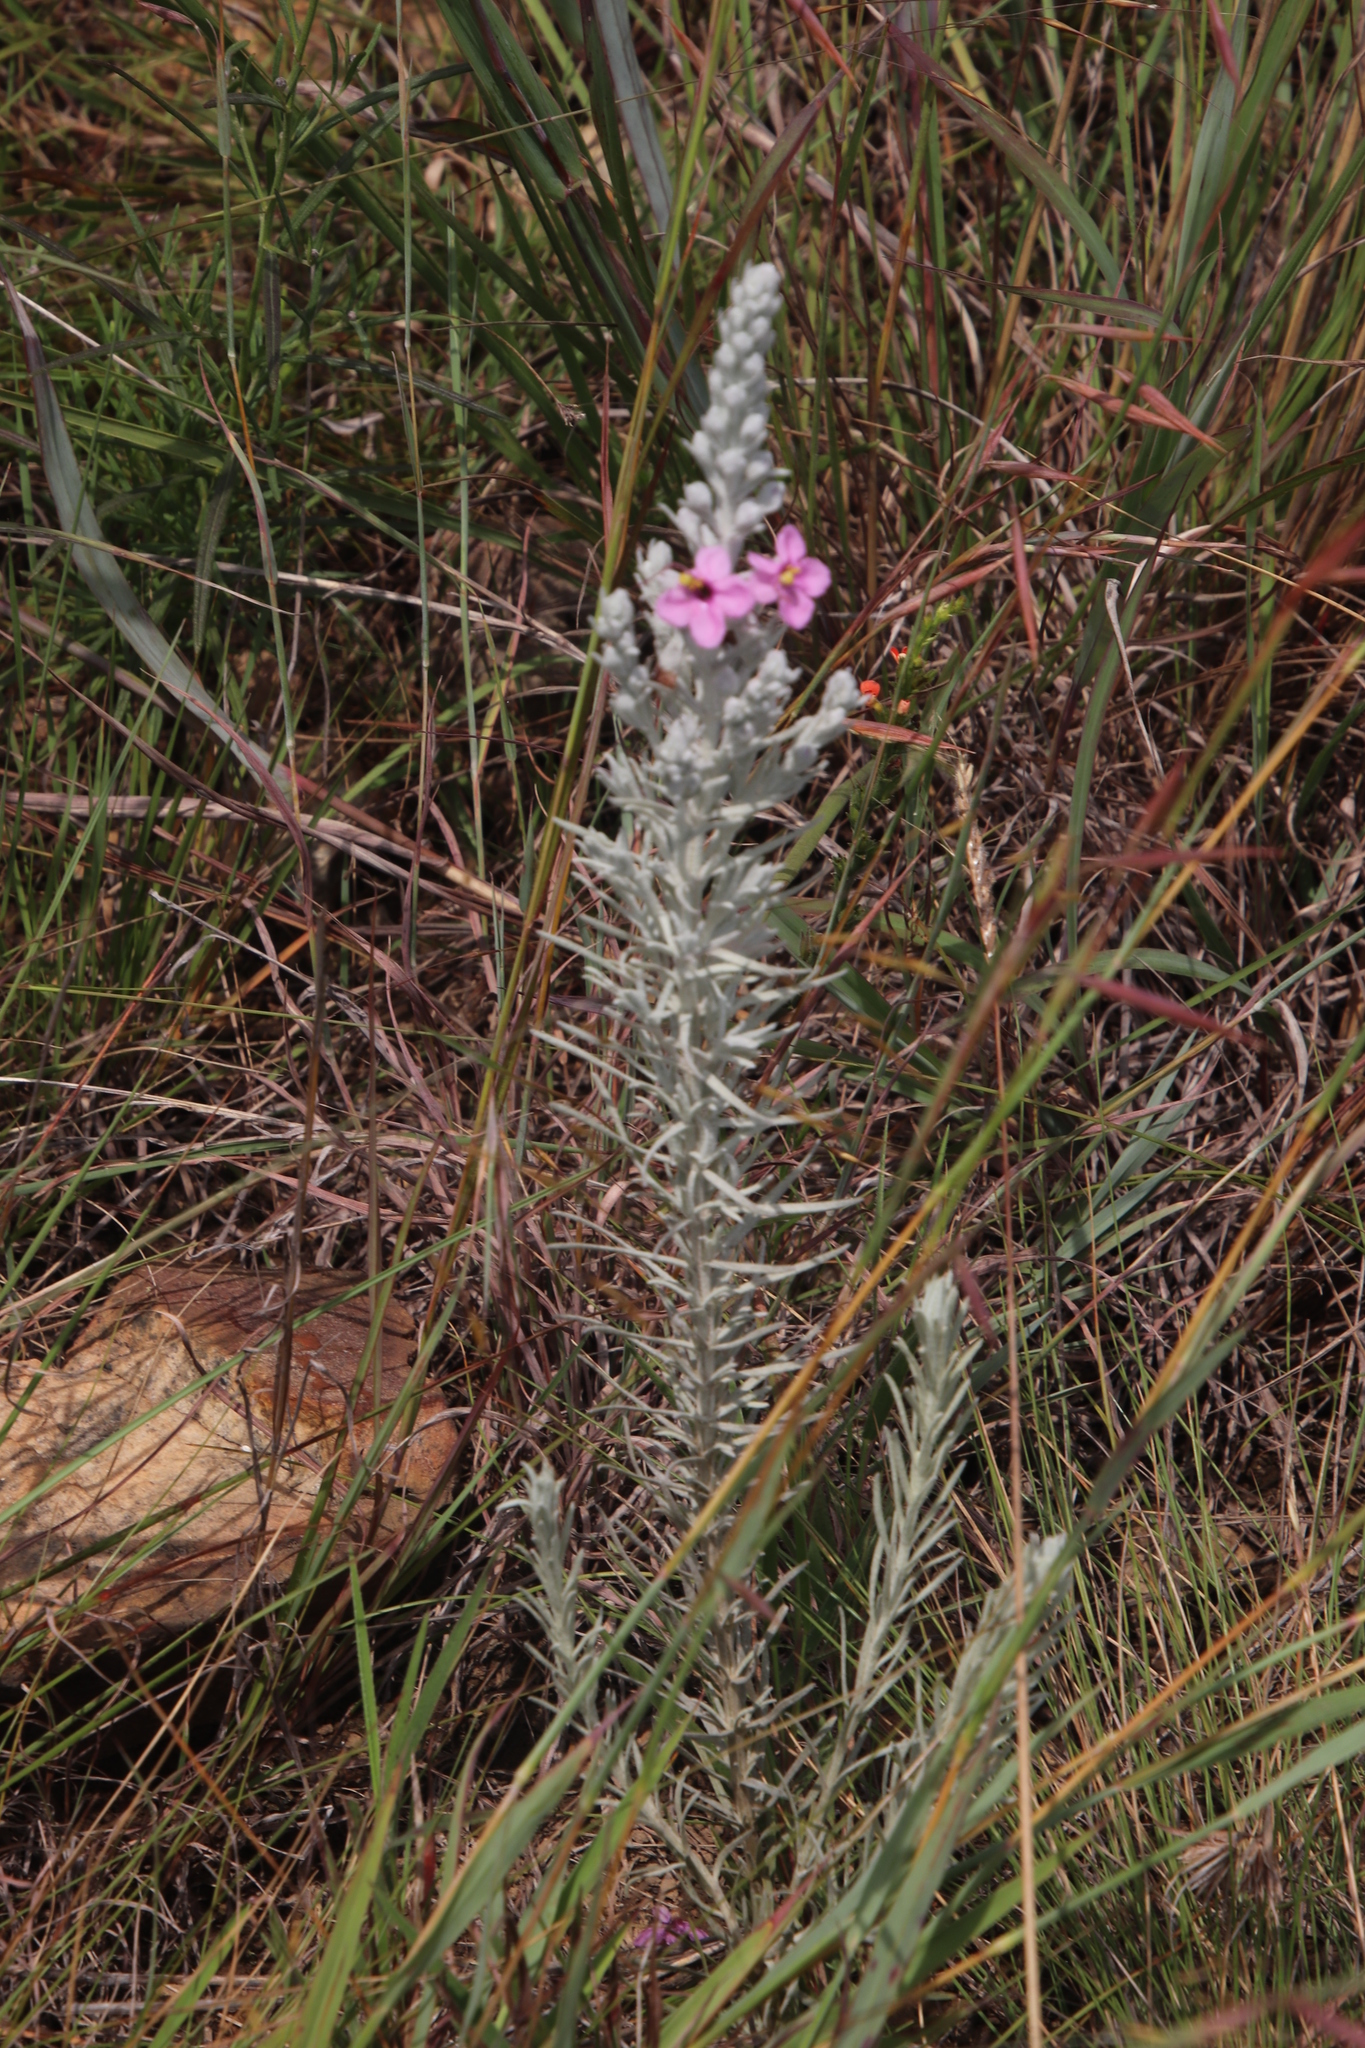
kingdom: Plantae
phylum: Tracheophyta
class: Magnoliopsida
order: Lamiales
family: Orobanchaceae
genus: Sopubia
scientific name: Sopubia cana
